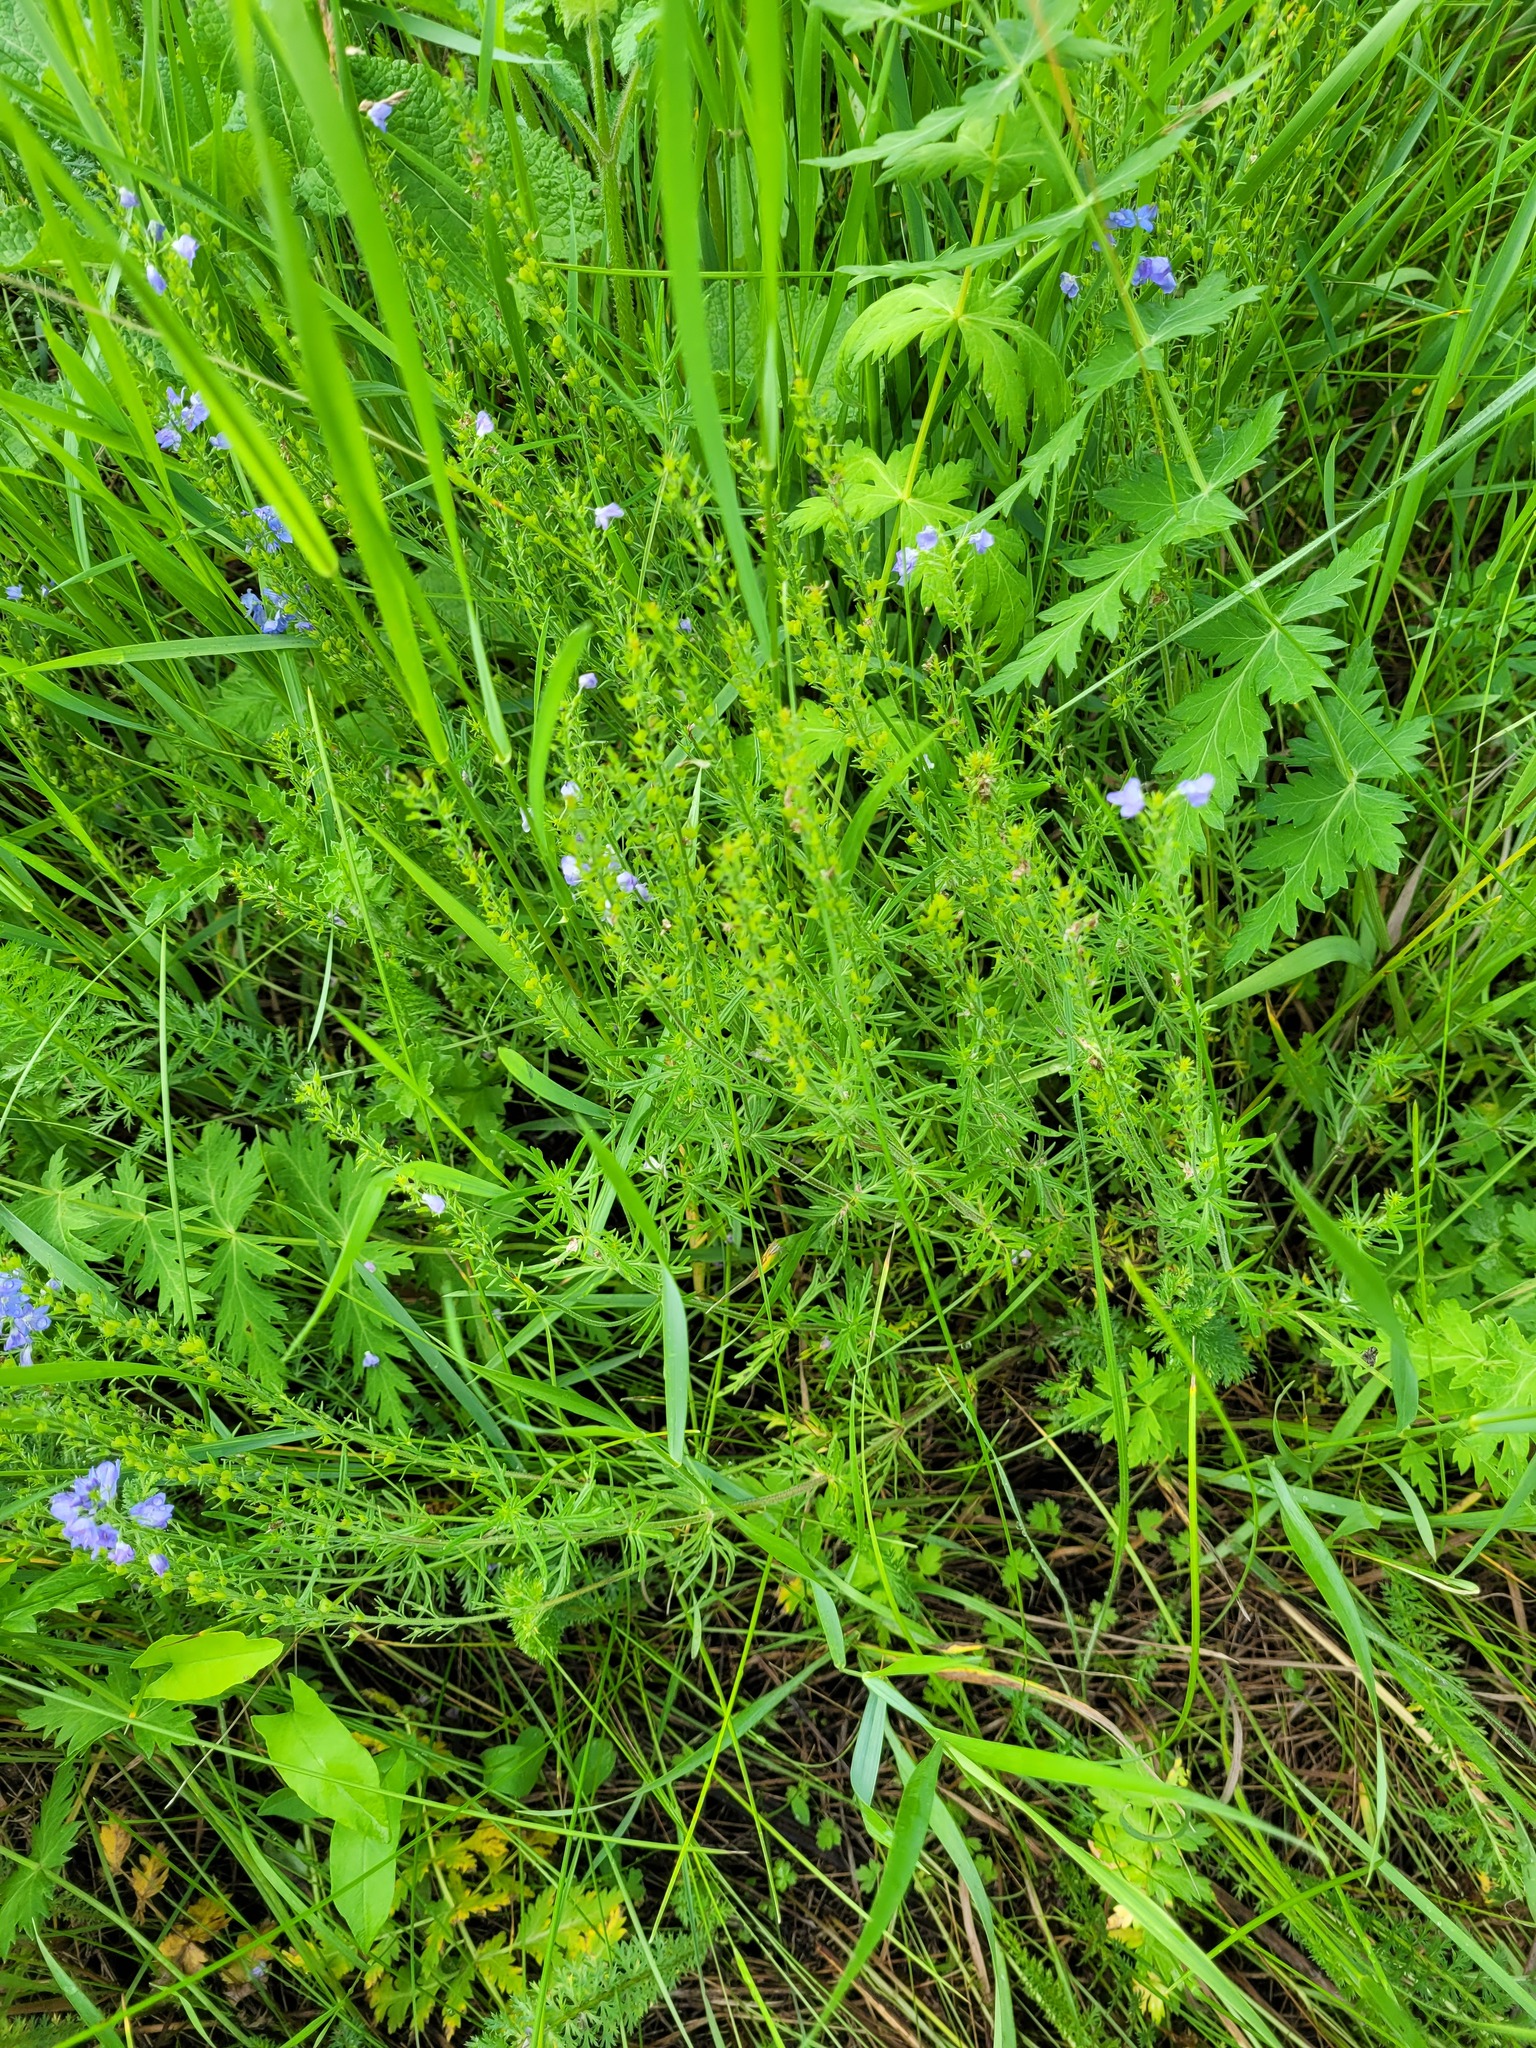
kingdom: Plantae
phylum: Tracheophyta
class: Magnoliopsida
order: Lamiales
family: Plantaginaceae
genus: Veronica
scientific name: Veronica austriaca
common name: Large speedwell
